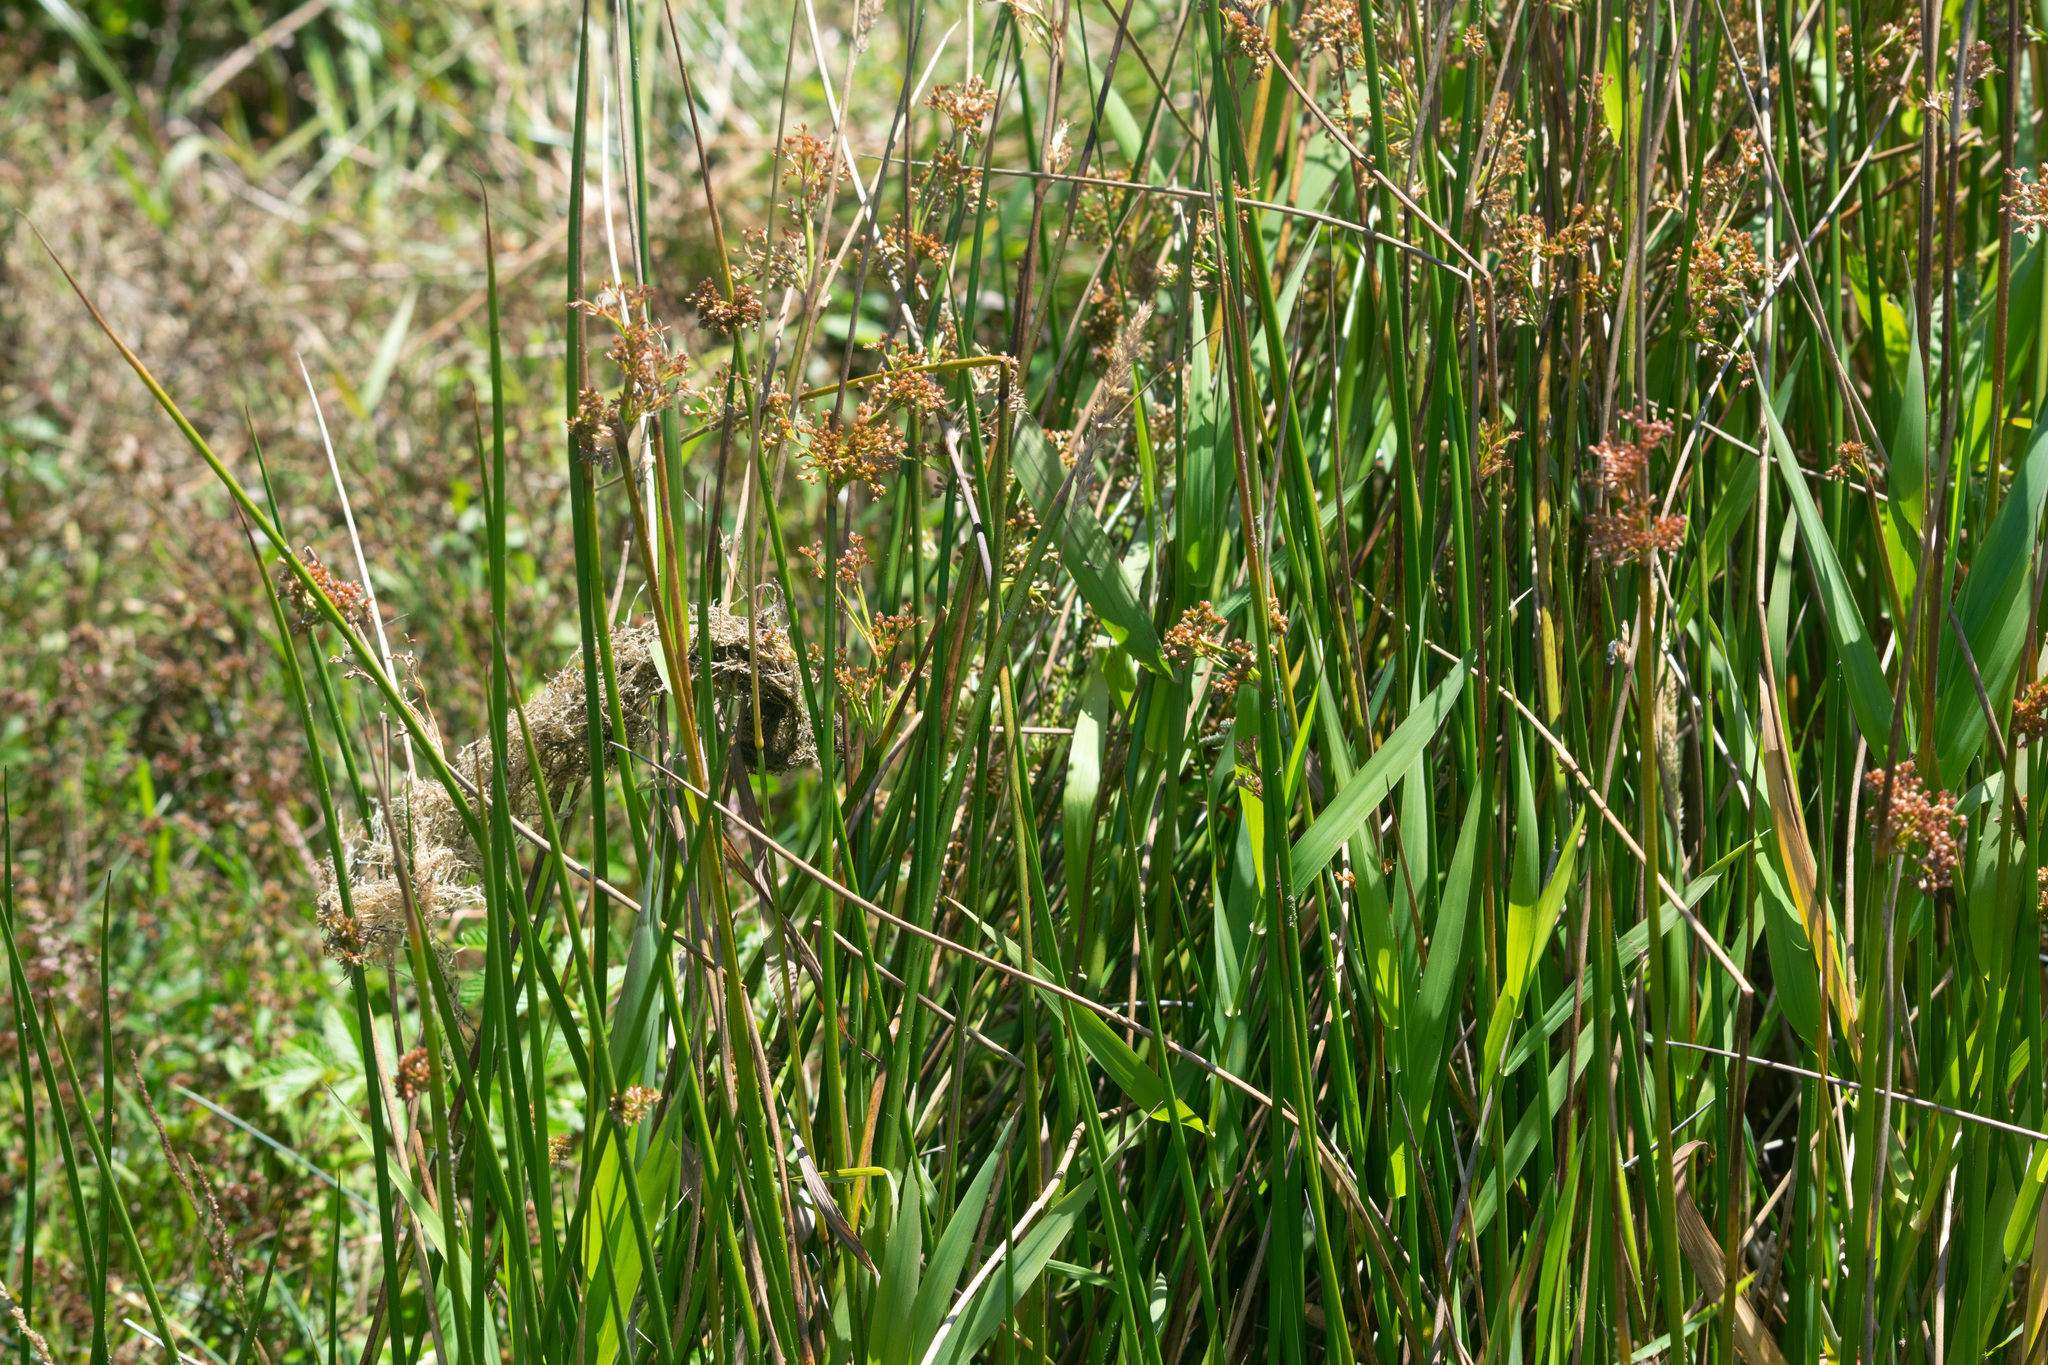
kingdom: Plantae
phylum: Tracheophyta
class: Liliopsida
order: Poales
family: Juncaceae
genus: Juncus
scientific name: Juncus effusus
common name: Soft rush
